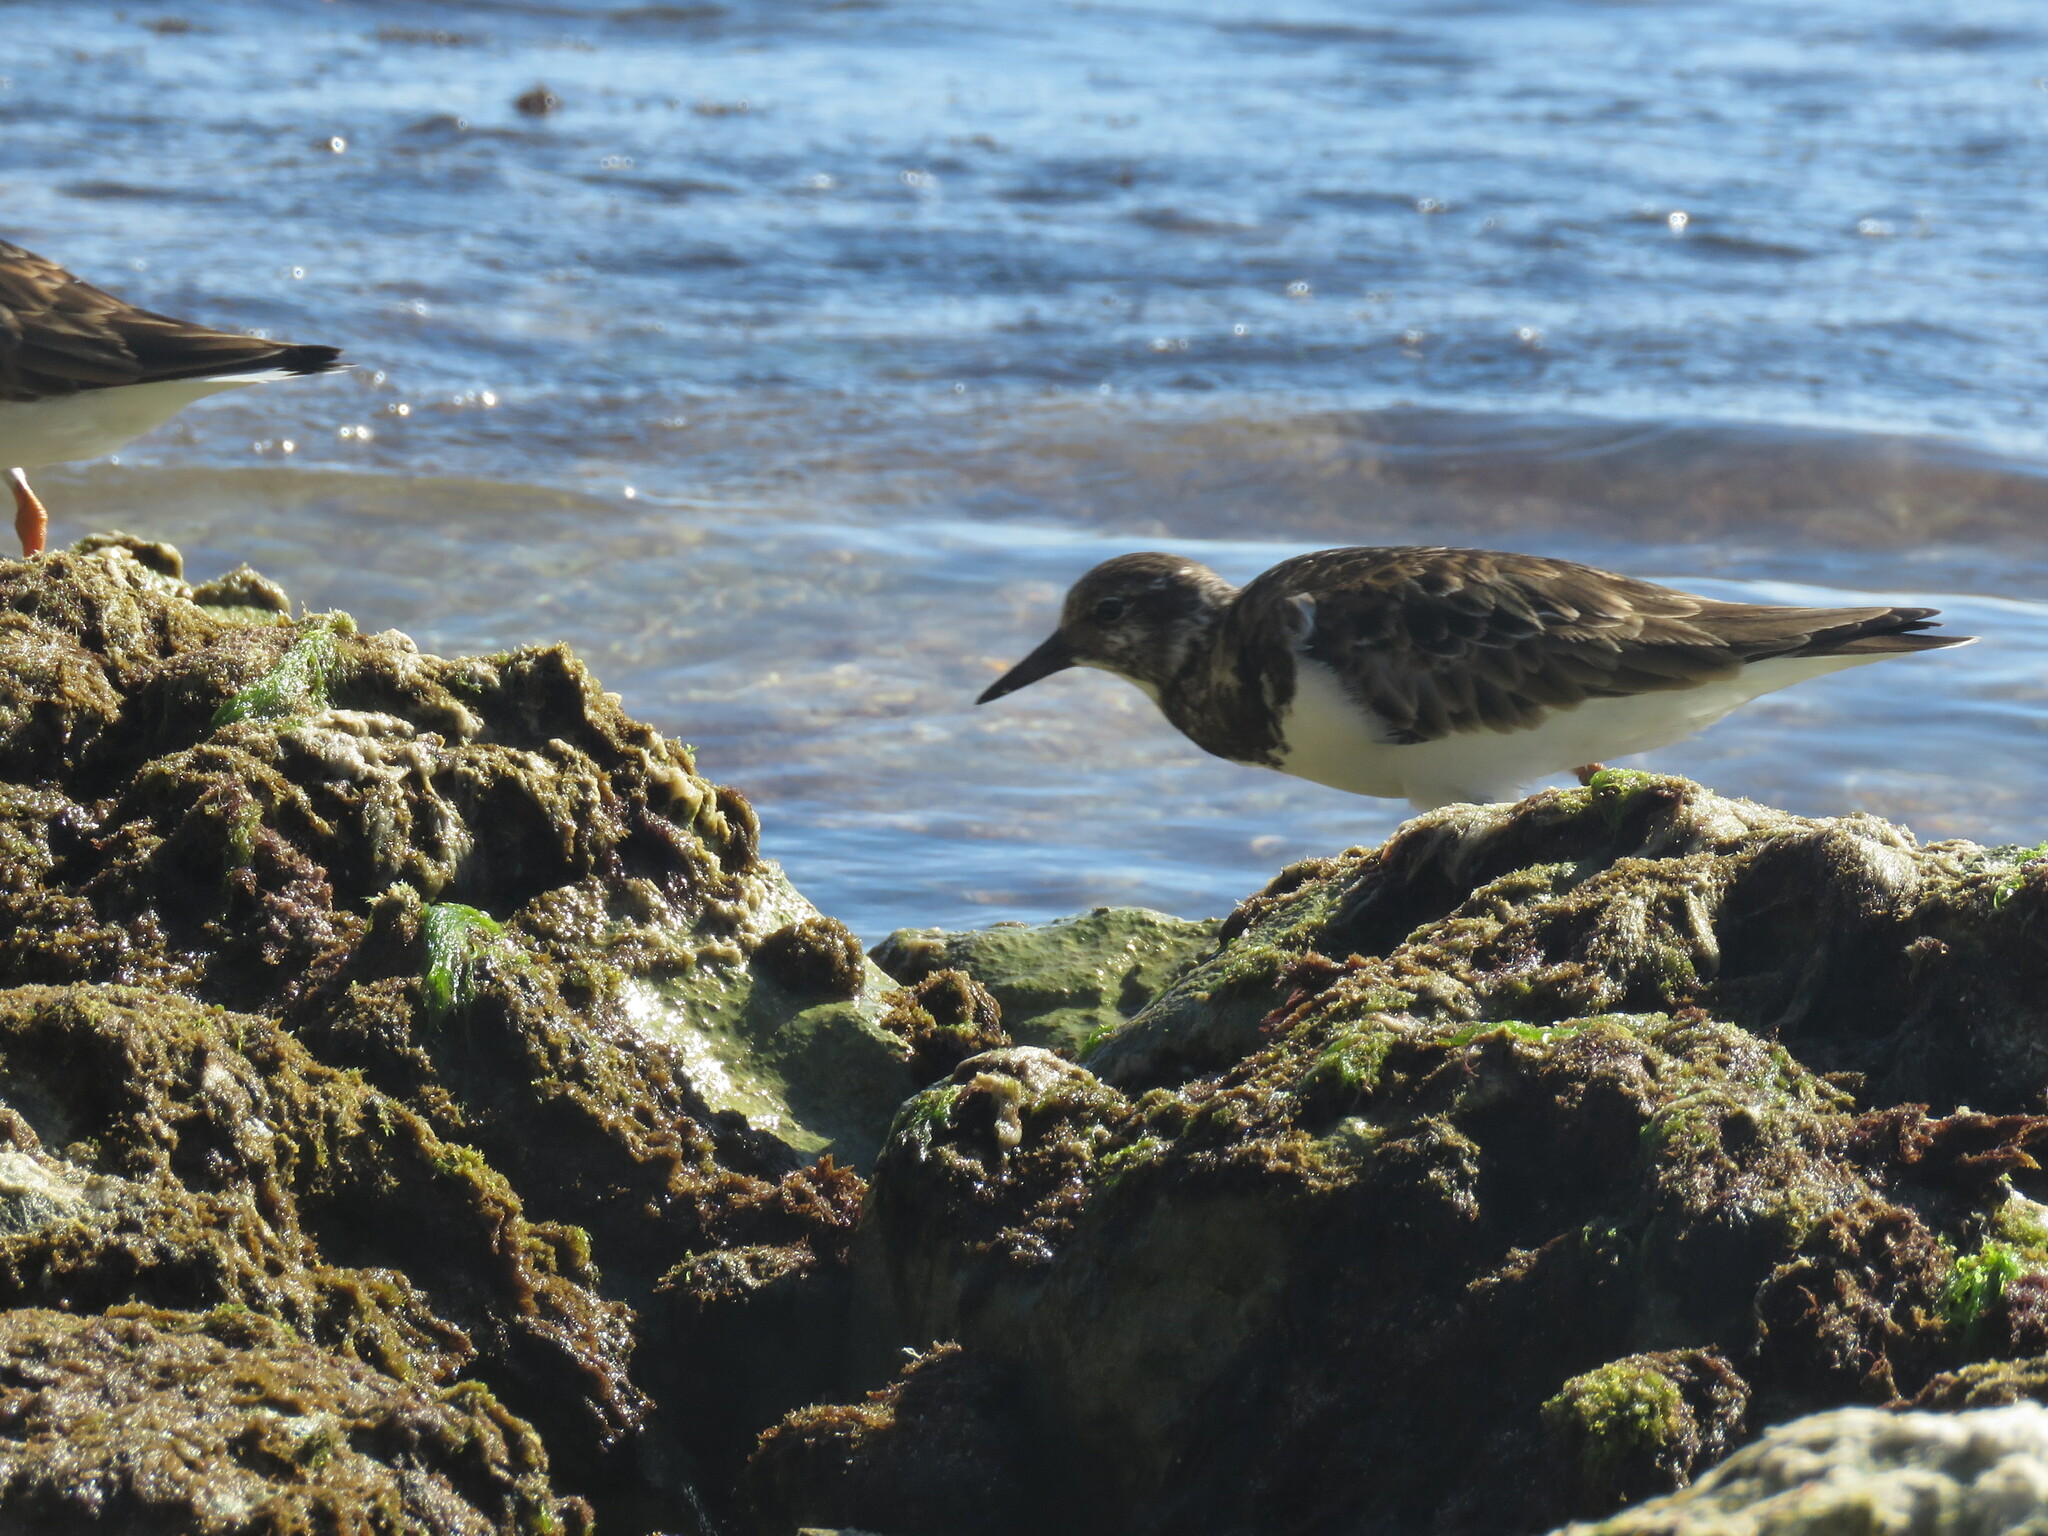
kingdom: Animalia
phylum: Chordata
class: Aves
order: Charadriiformes
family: Scolopacidae
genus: Arenaria
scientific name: Arenaria interpres
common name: Ruddy turnstone
